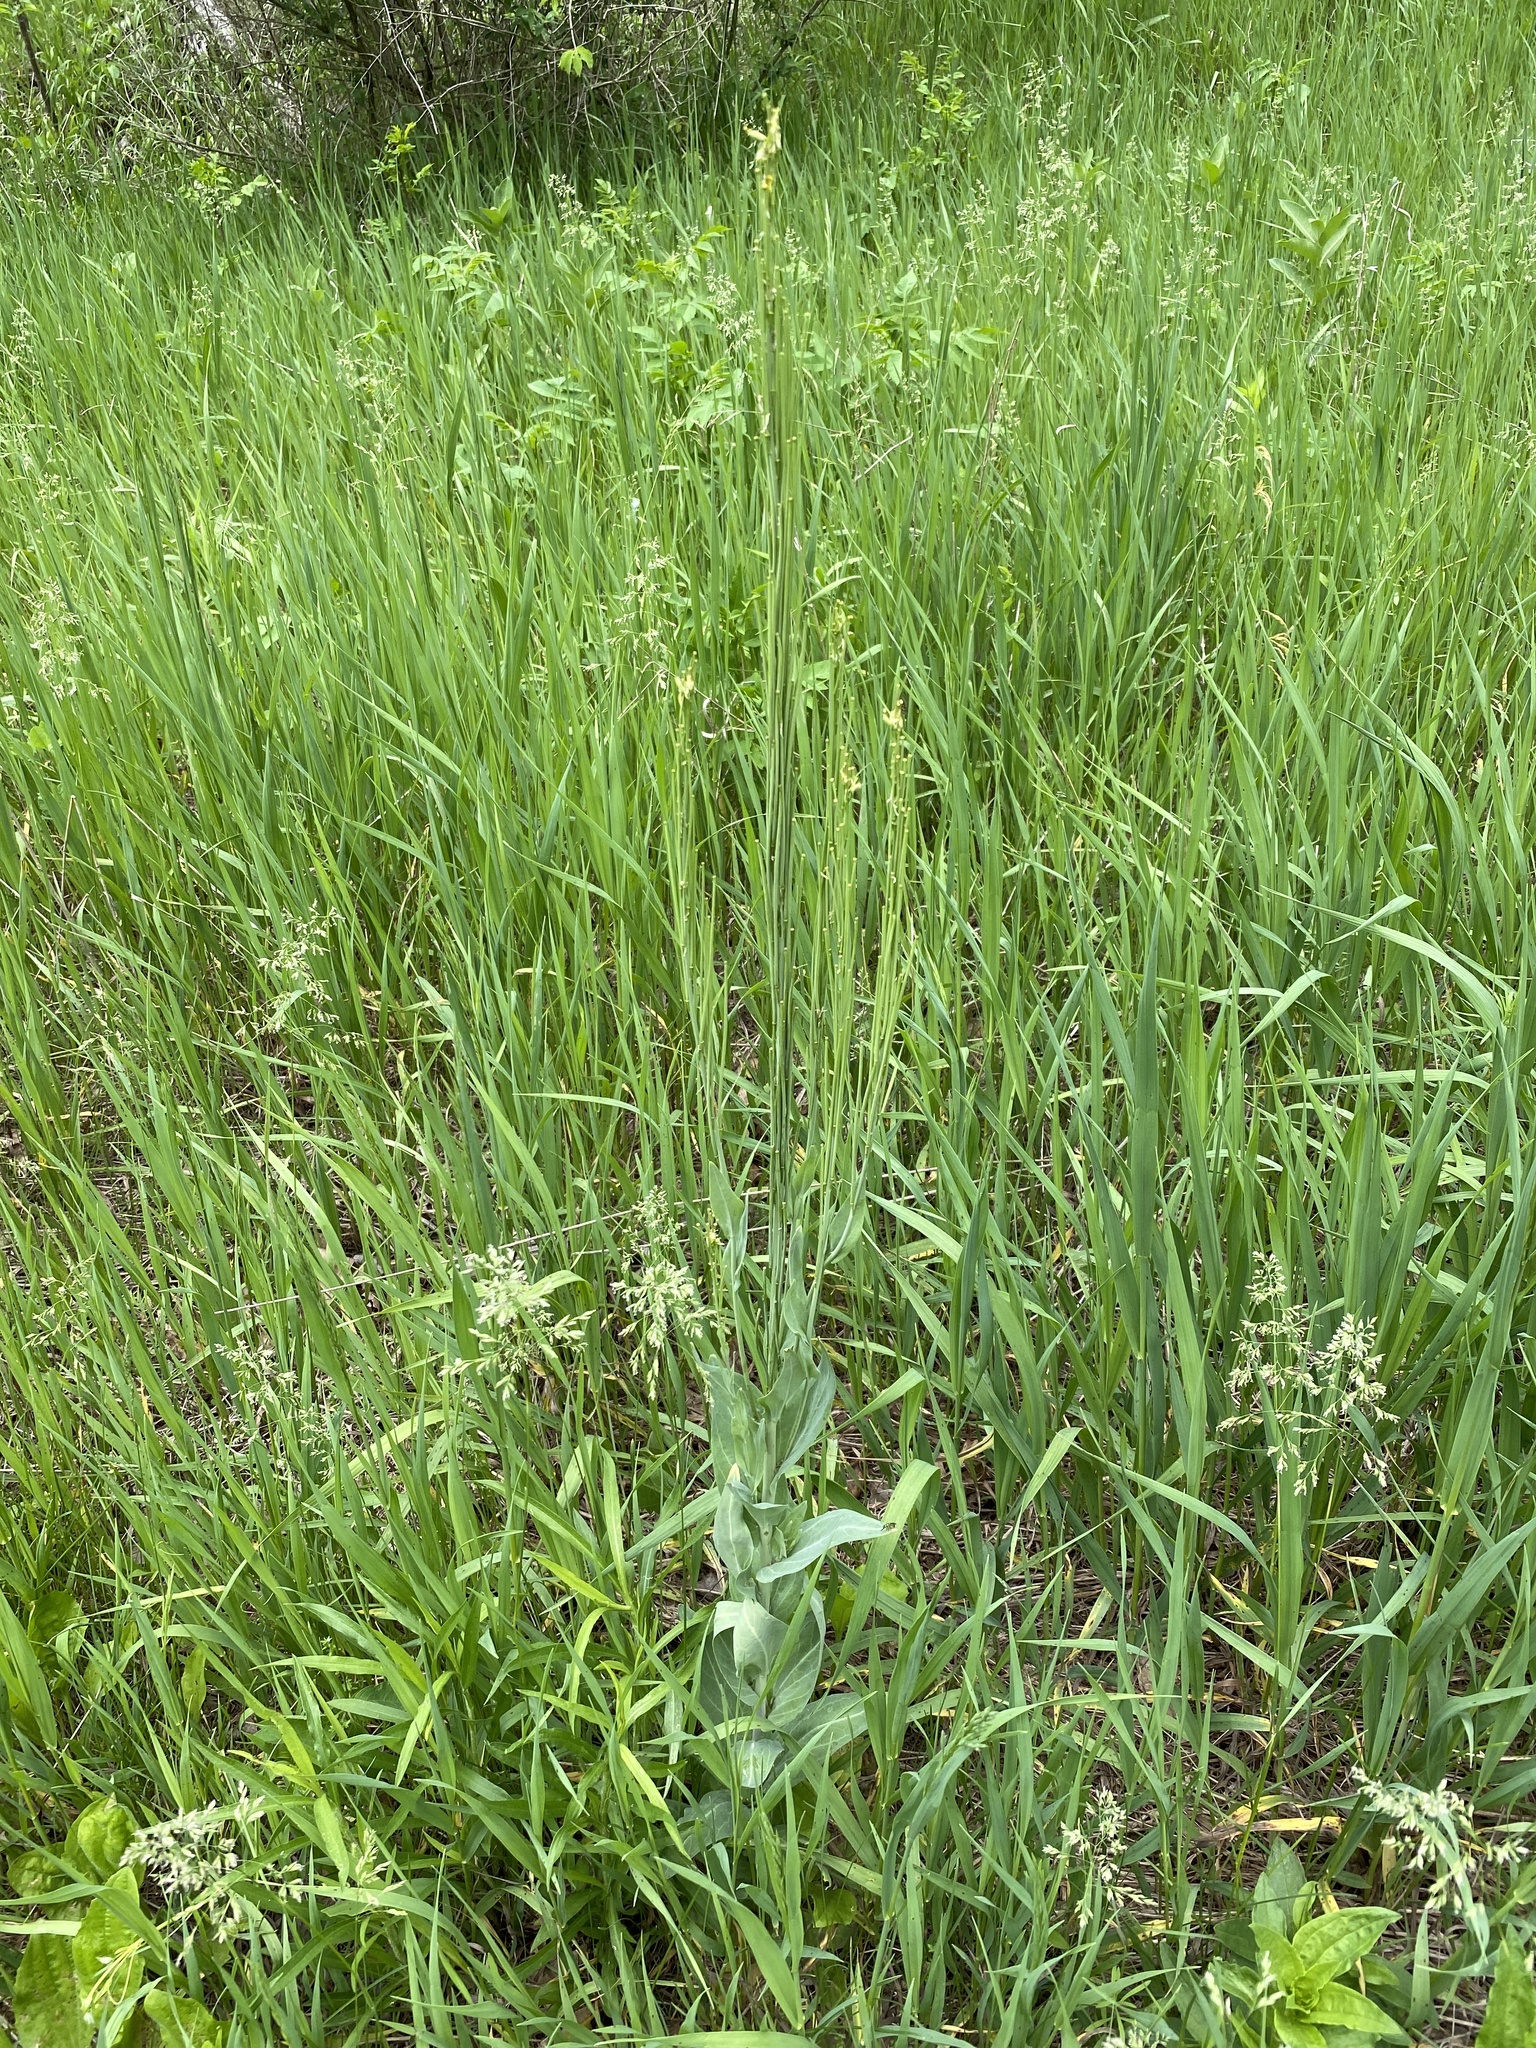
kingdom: Plantae
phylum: Tracheophyta
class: Magnoliopsida
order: Brassicales
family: Brassicaceae
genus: Turritis
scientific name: Turritis glabra
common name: Tower rockcress
